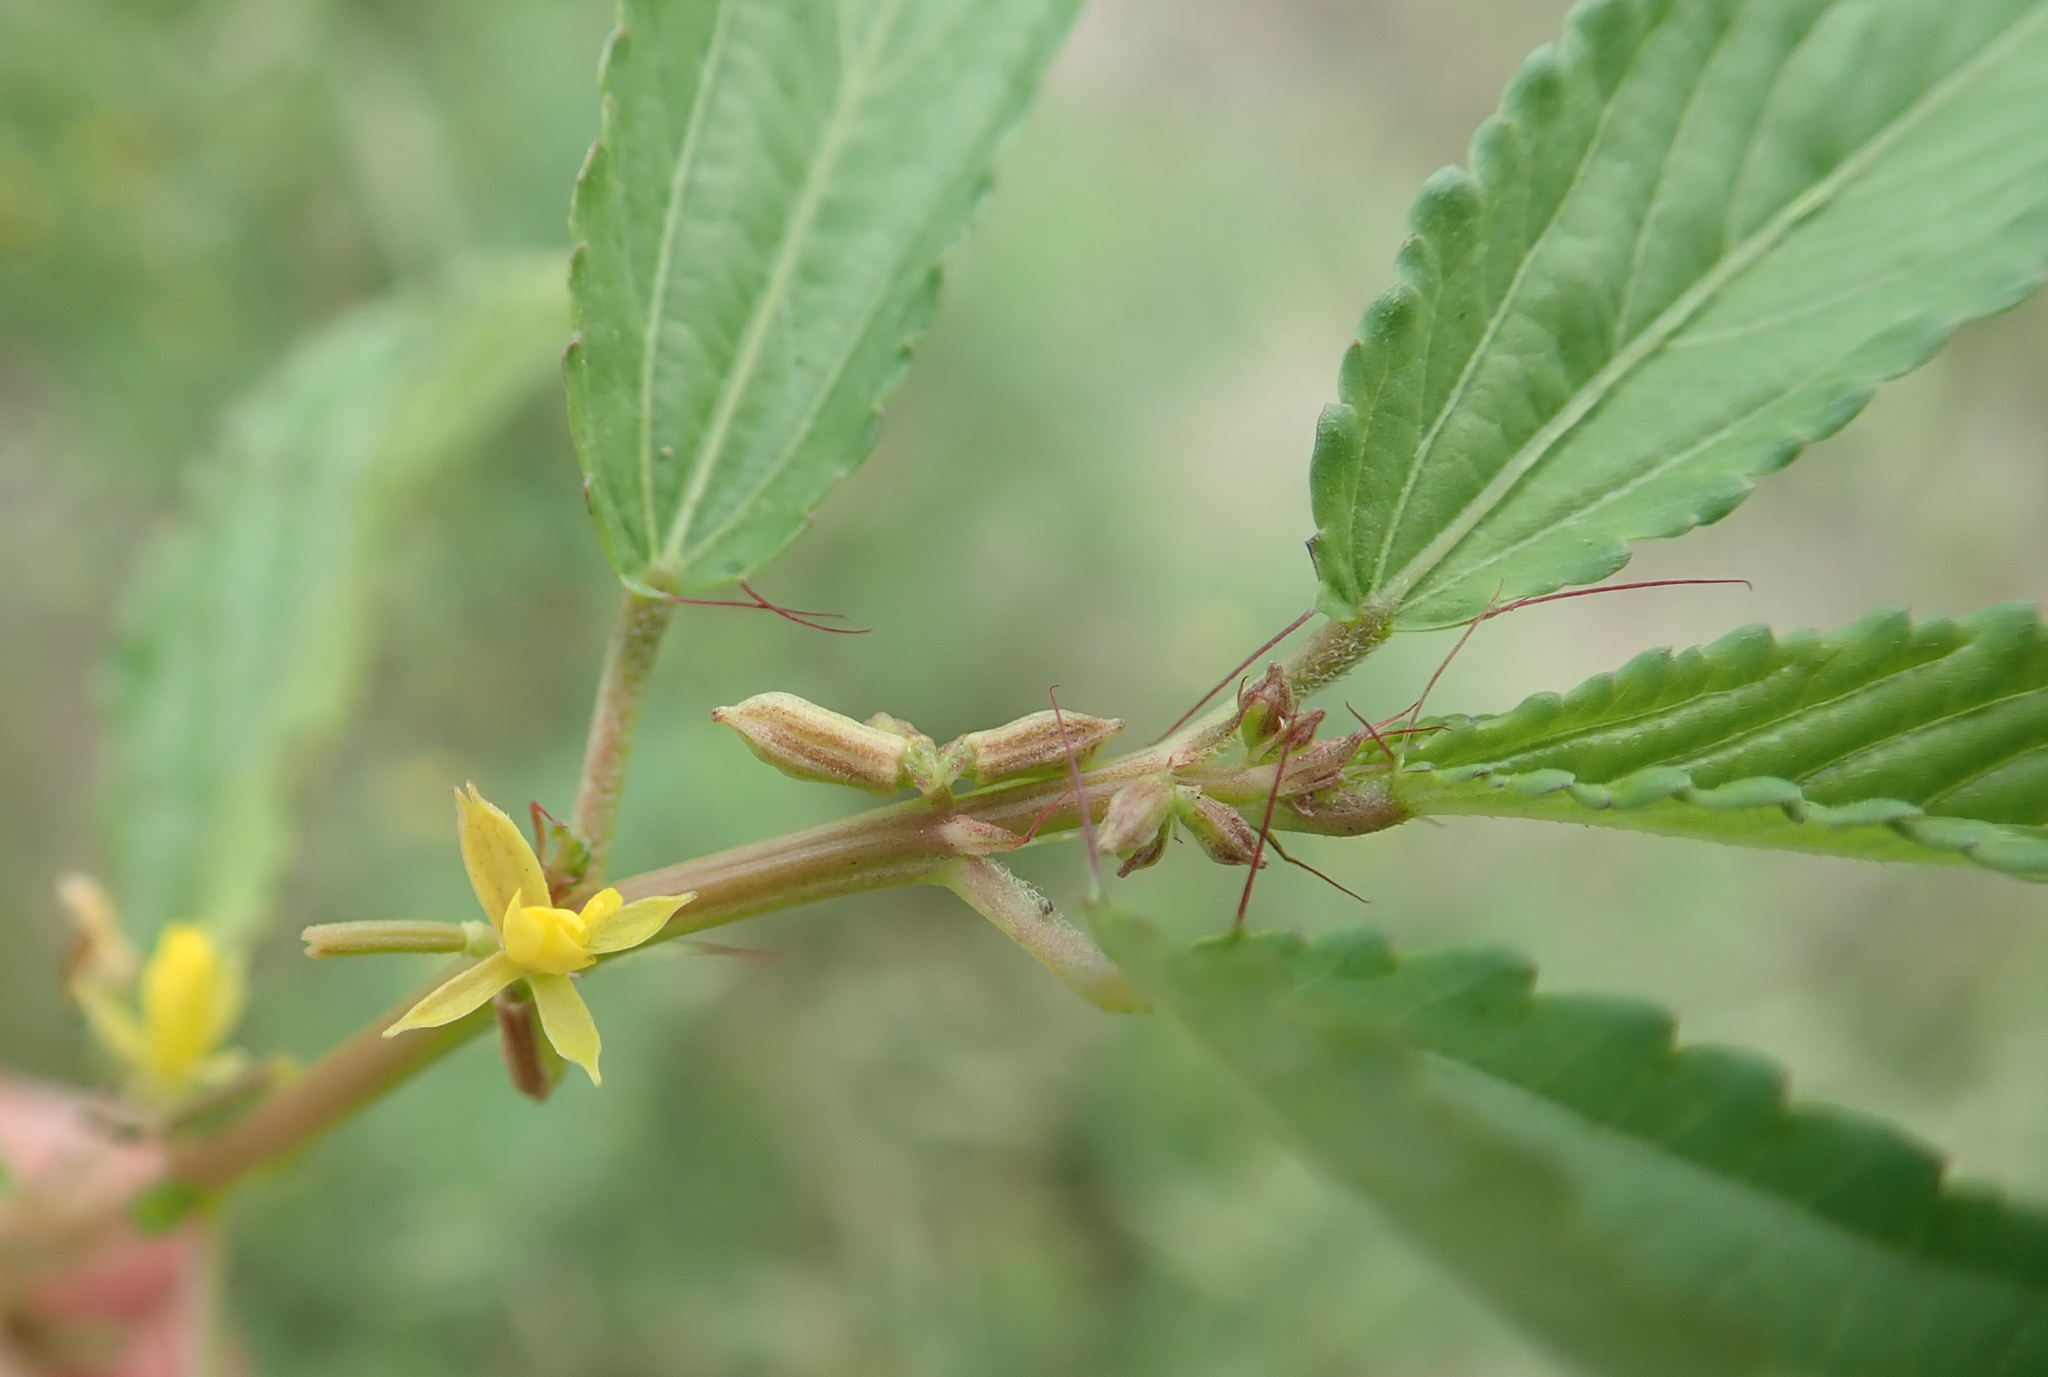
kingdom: Plantae
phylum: Tracheophyta
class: Magnoliopsida
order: Malvales
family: Malvaceae
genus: Corchorus
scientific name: Corchorus tridens
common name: Wild jute
